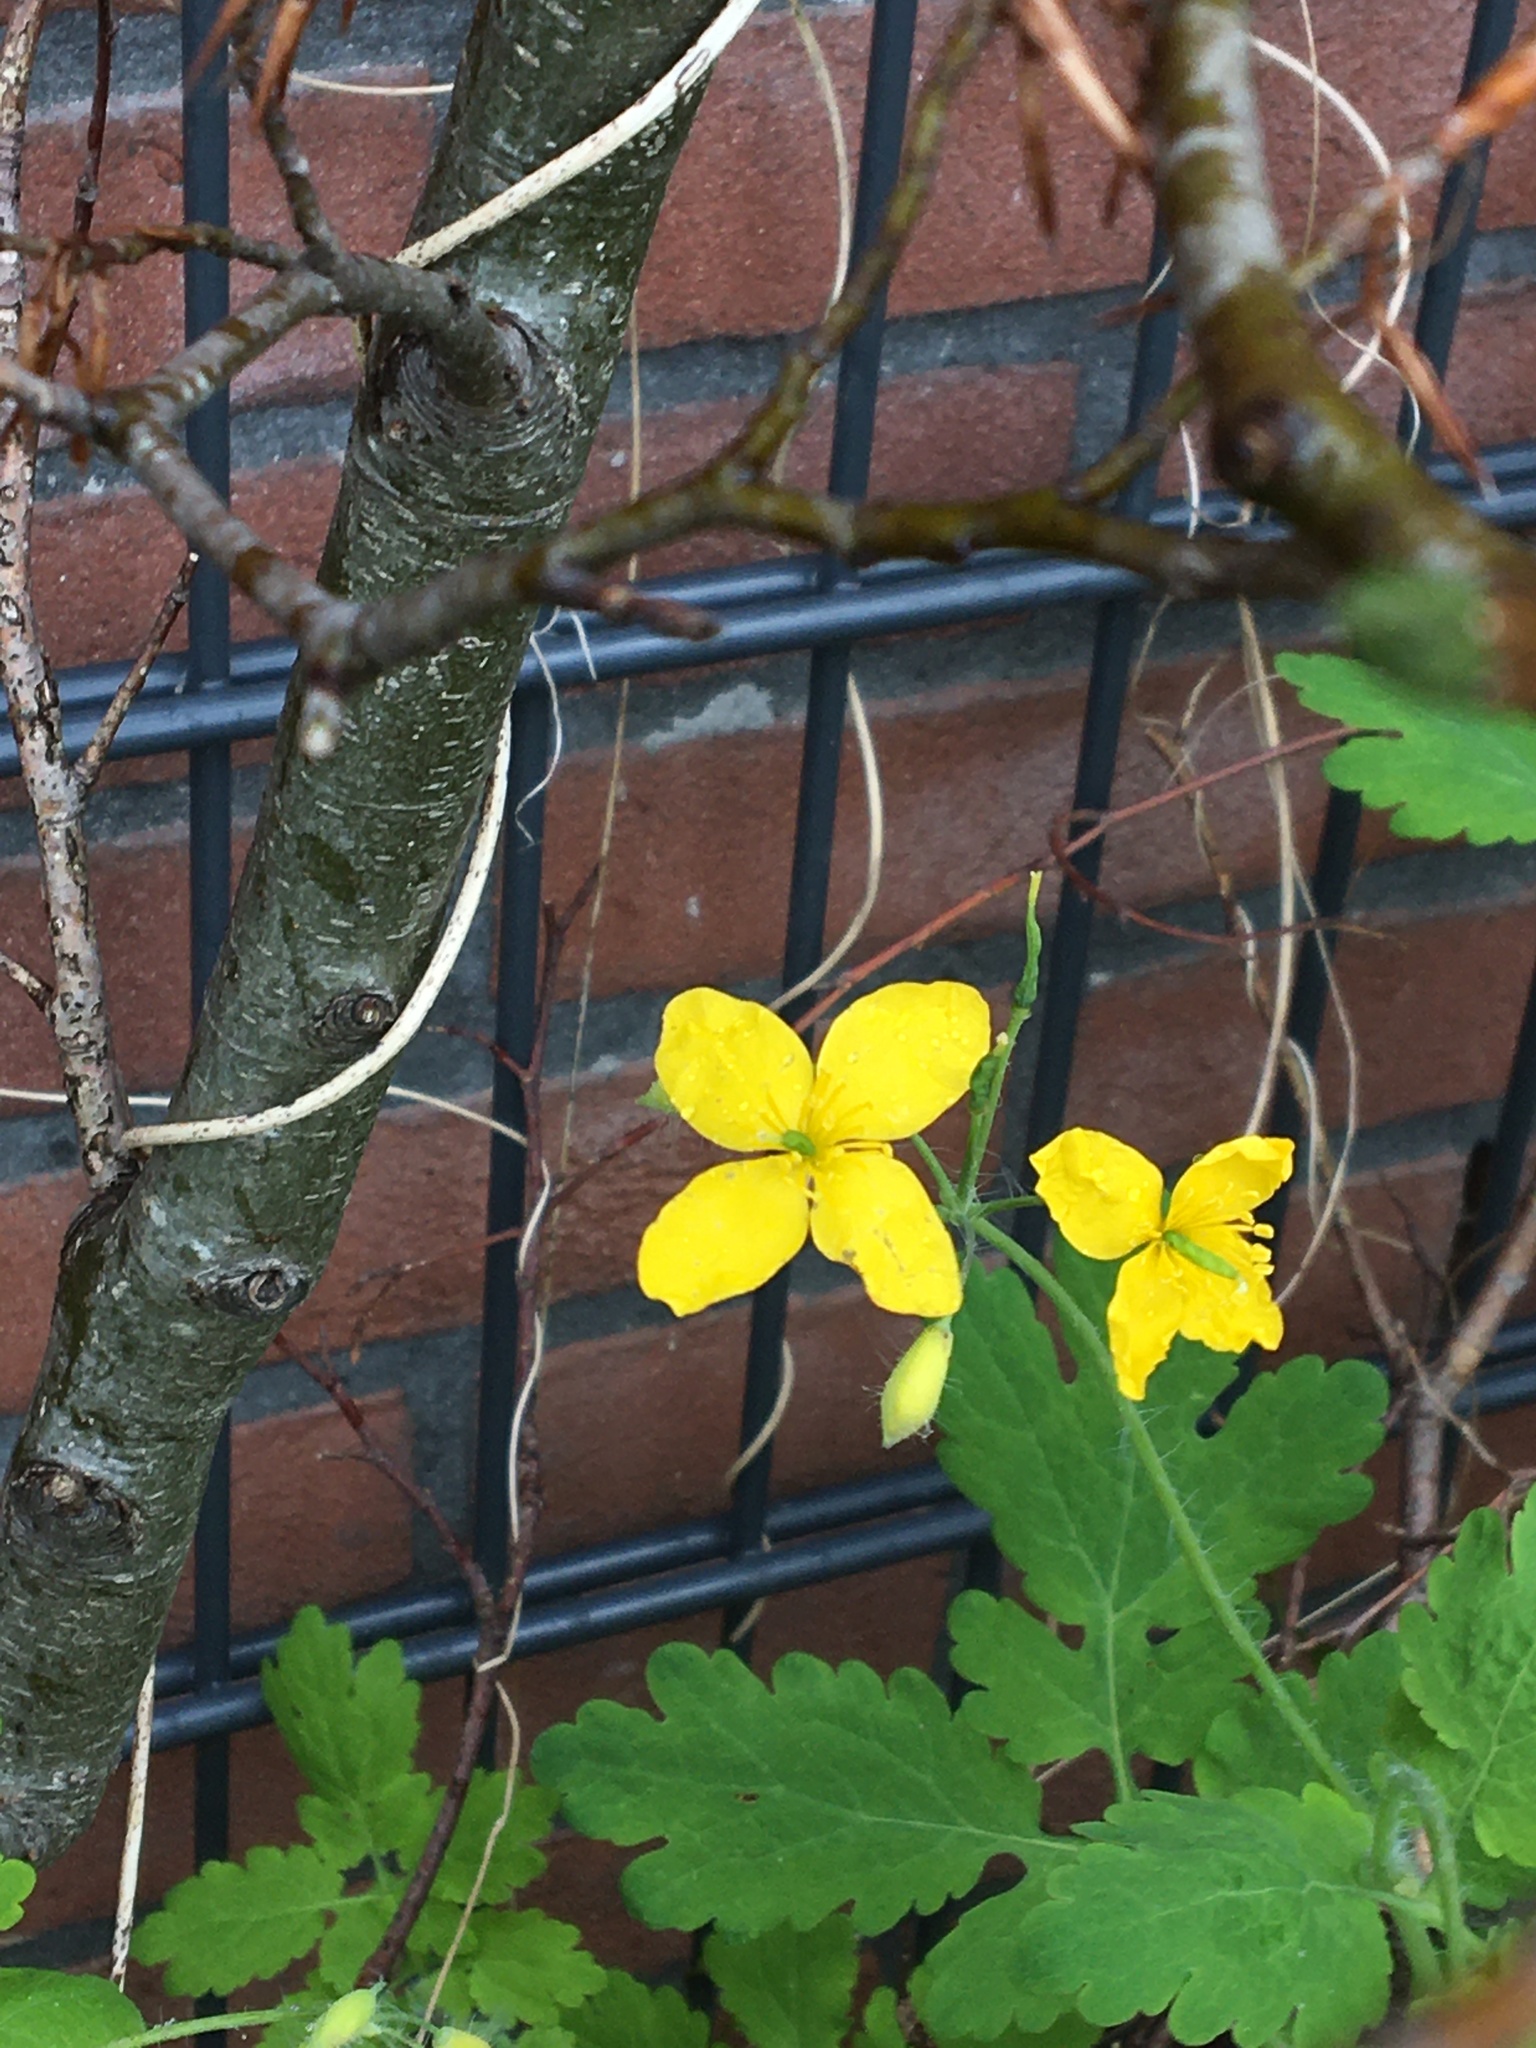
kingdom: Plantae
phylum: Tracheophyta
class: Magnoliopsida
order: Ranunculales
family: Papaveraceae
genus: Chelidonium
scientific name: Chelidonium majus
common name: Greater celandine
